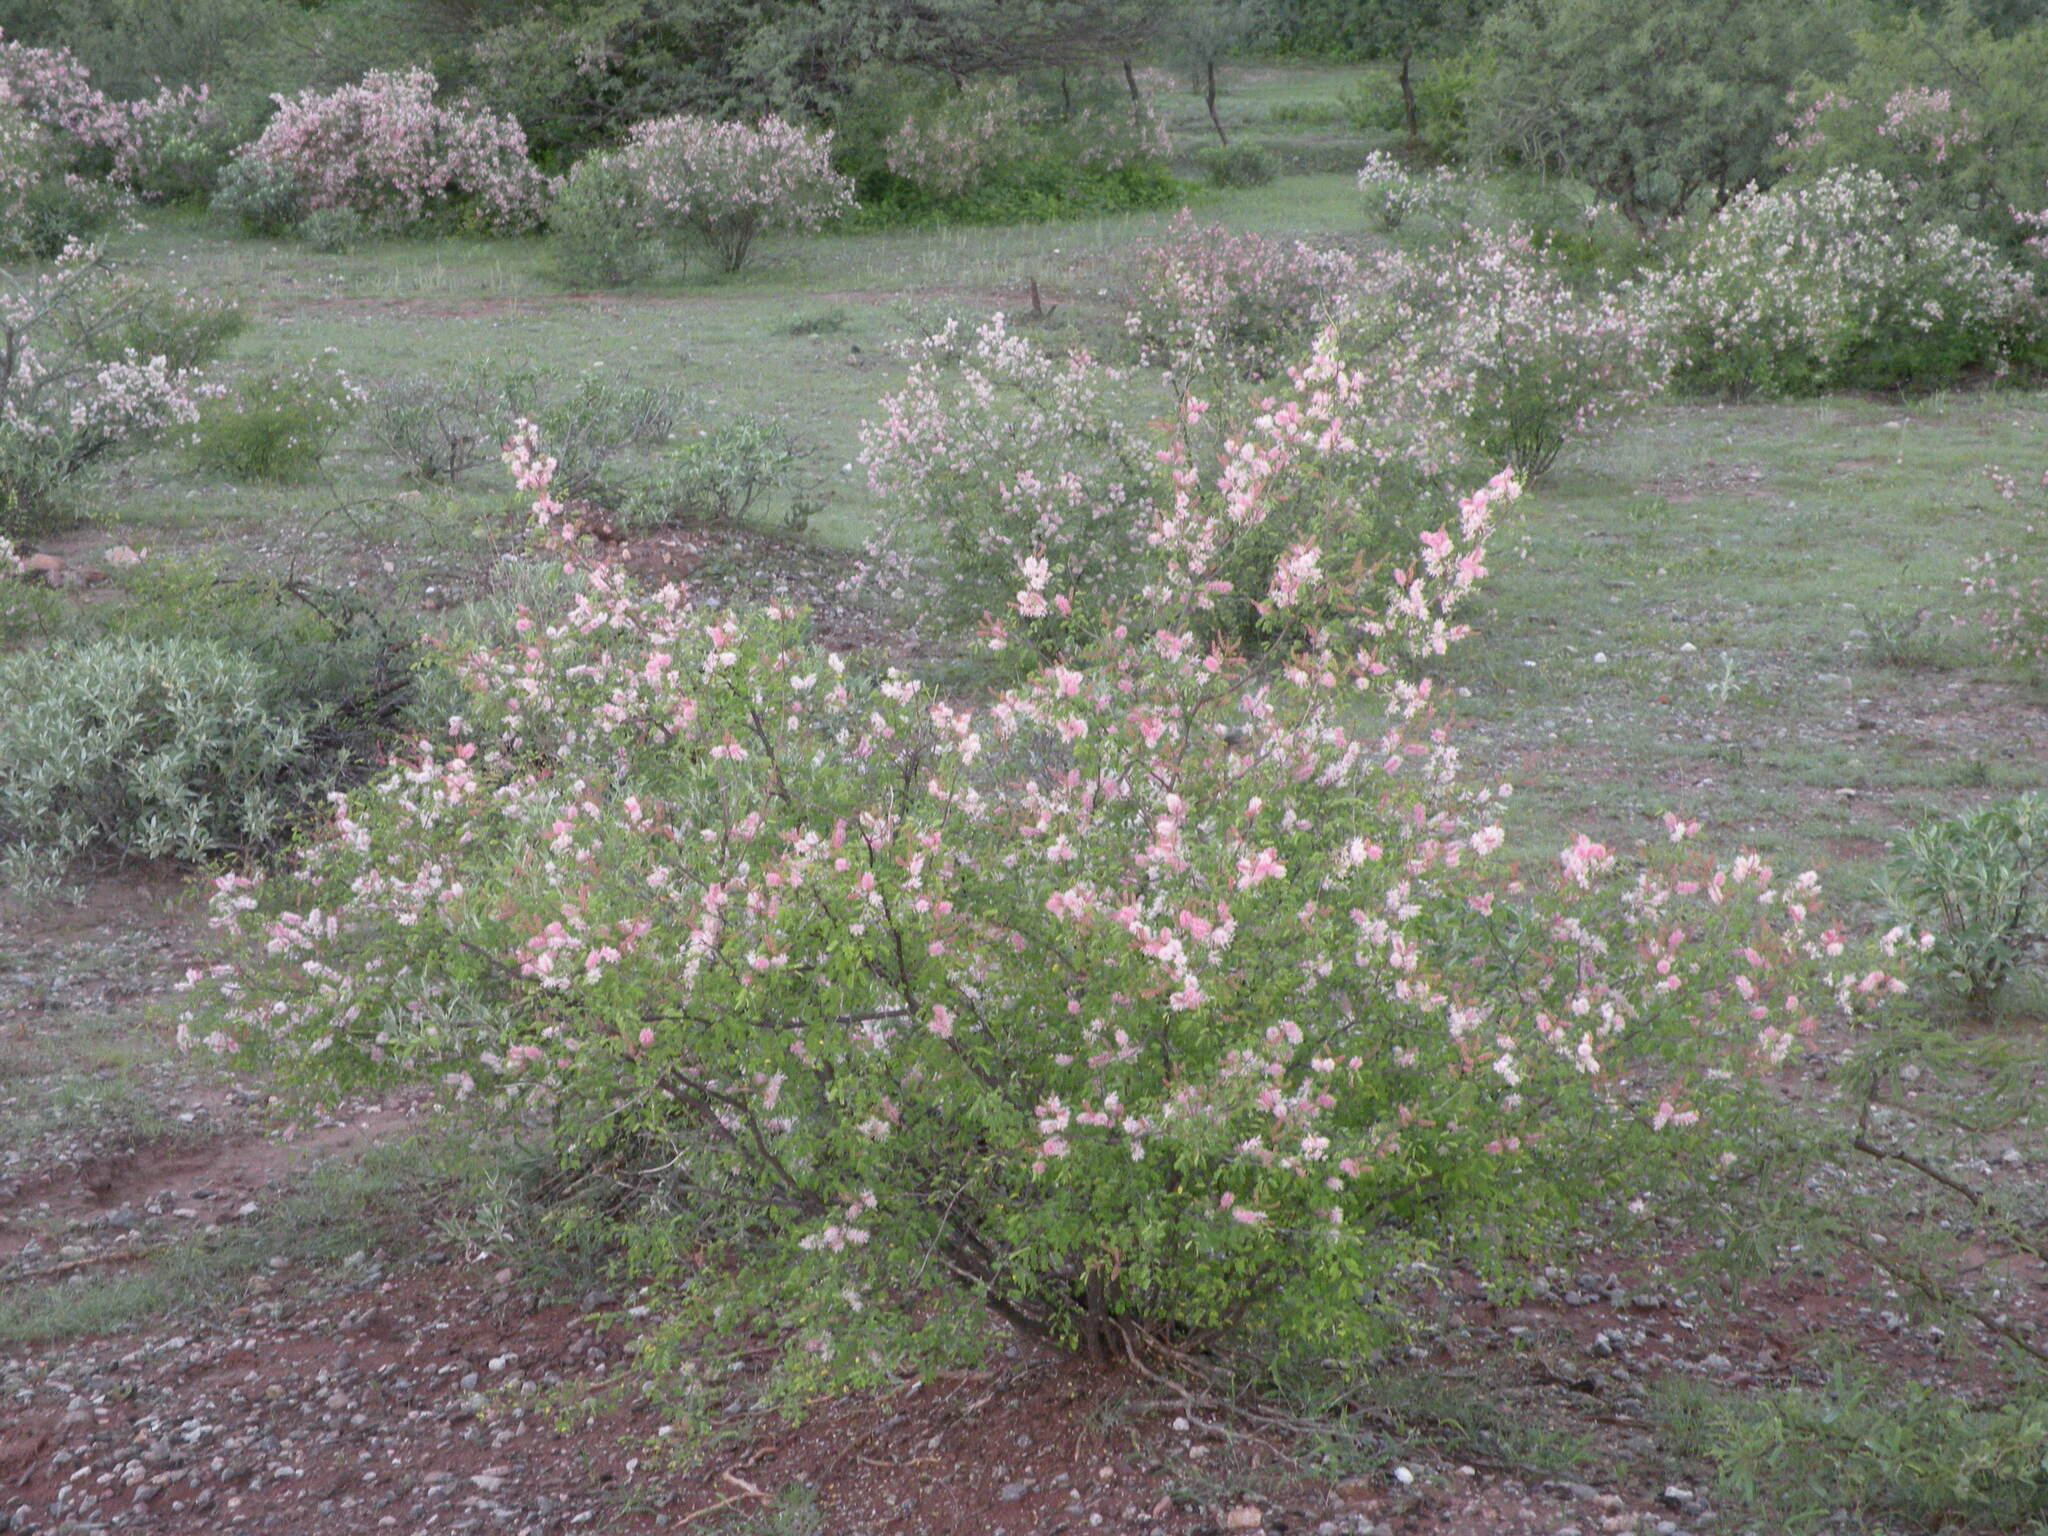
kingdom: Plantae
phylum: Tracheophyta
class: Magnoliopsida
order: Fabales
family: Fabaceae
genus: Mimosa
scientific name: Mimosa distachya
